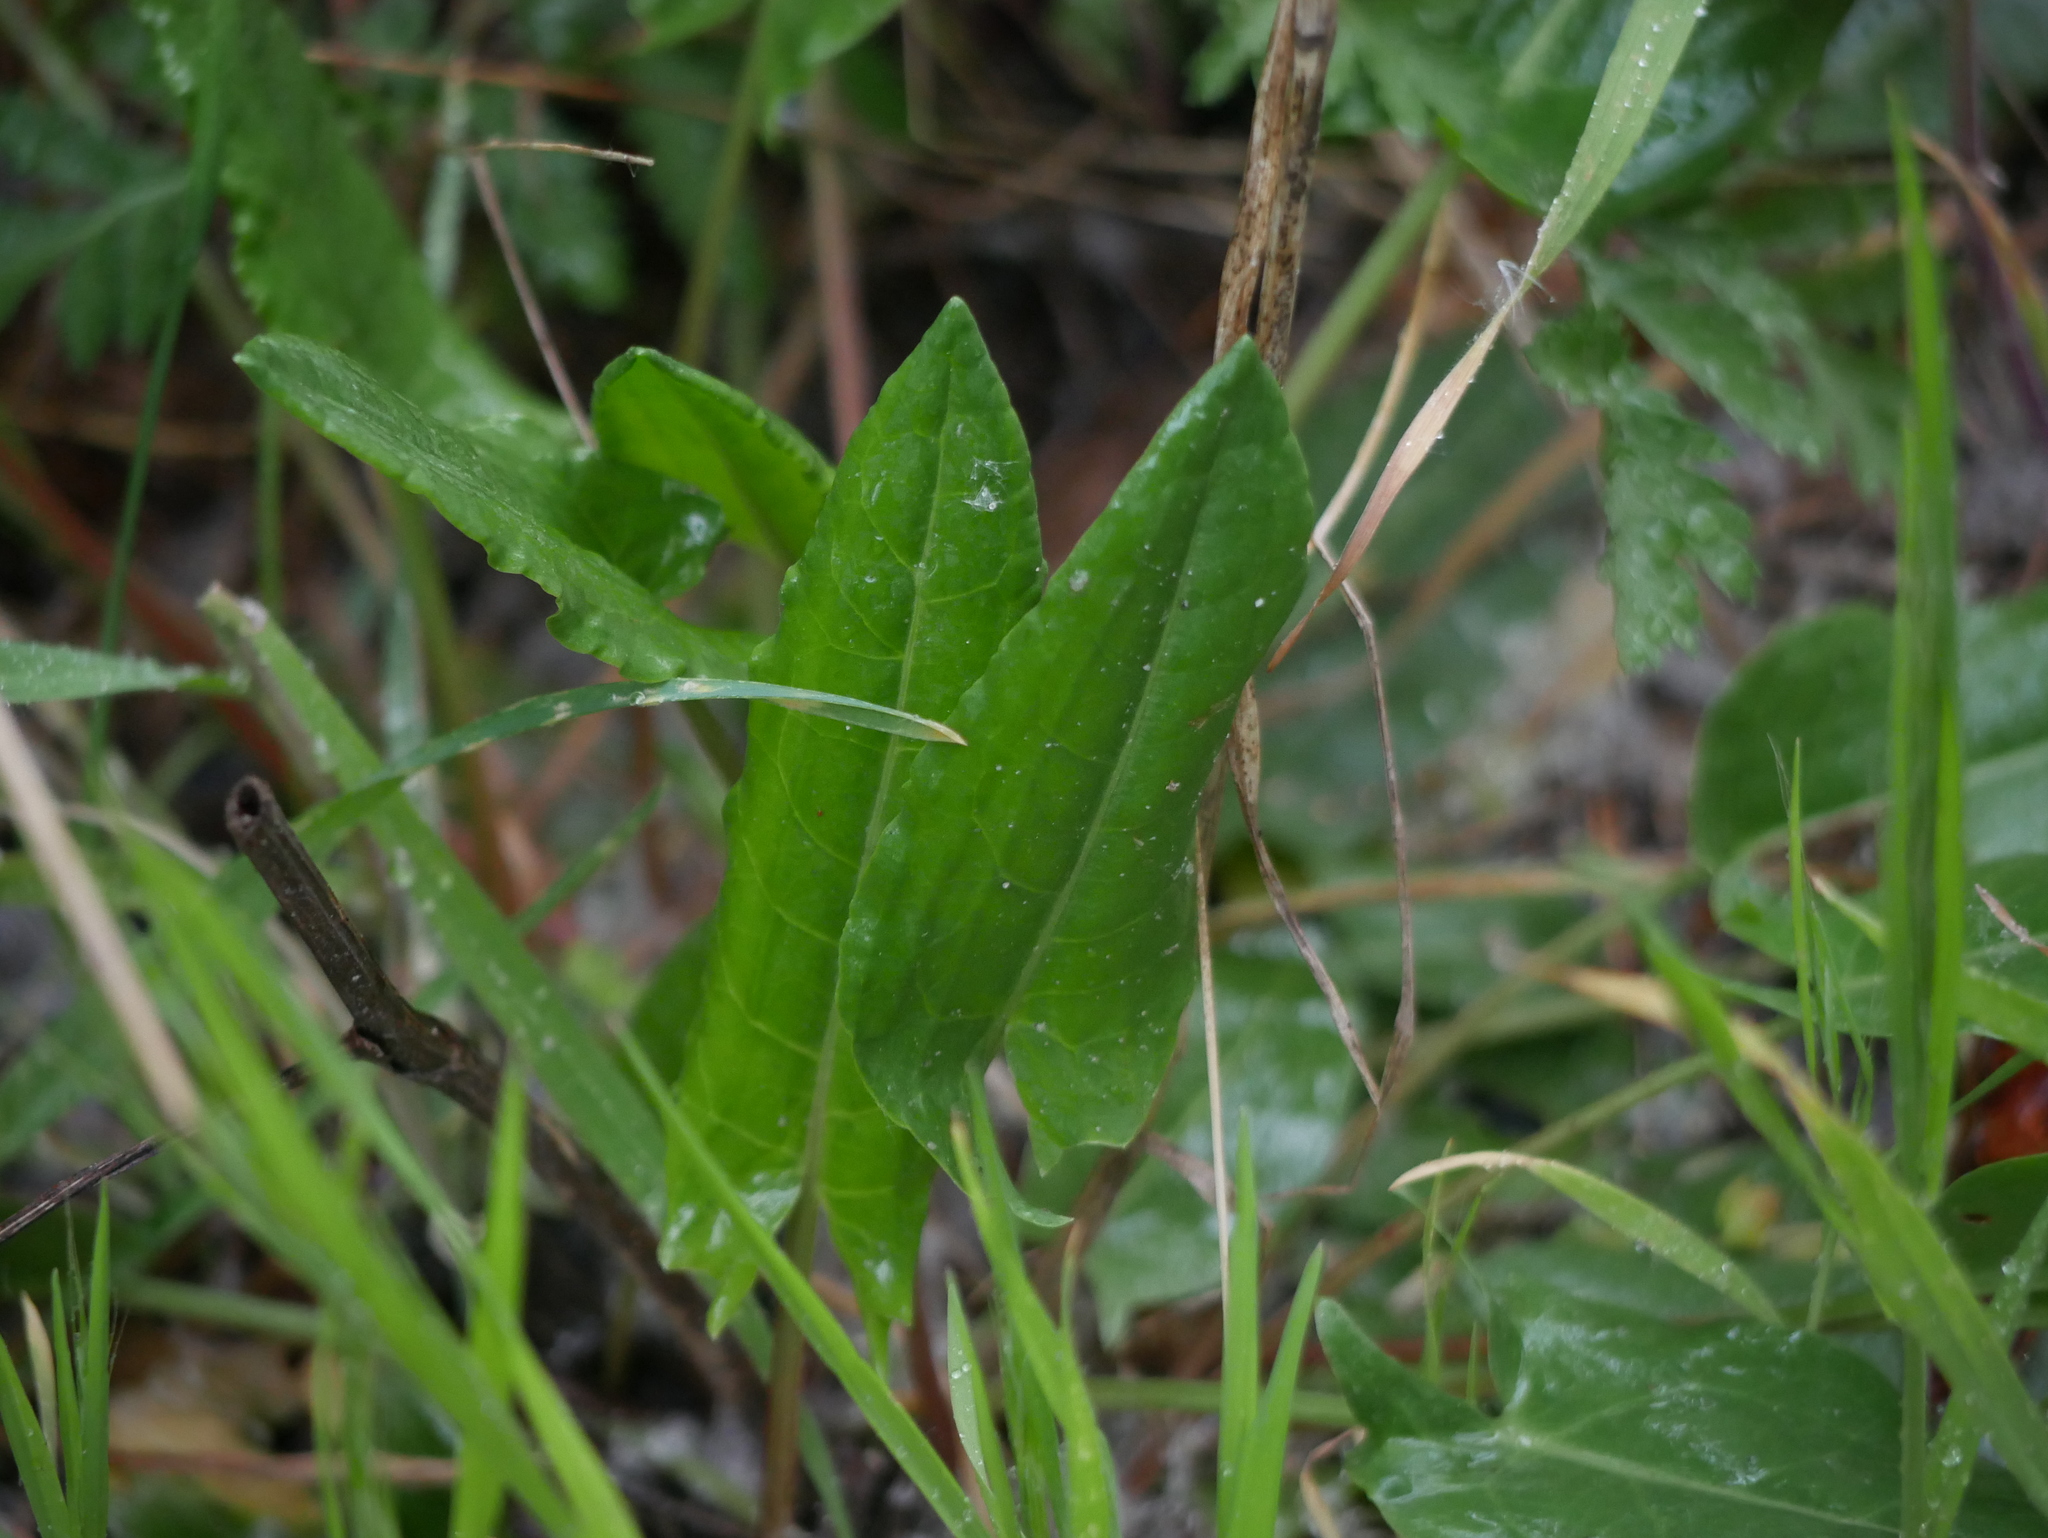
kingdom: Plantae
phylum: Tracheophyta
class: Magnoliopsida
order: Caryophyllales
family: Polygonaceae
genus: Rumex
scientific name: Rumex acetosa
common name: Garden sorrel
